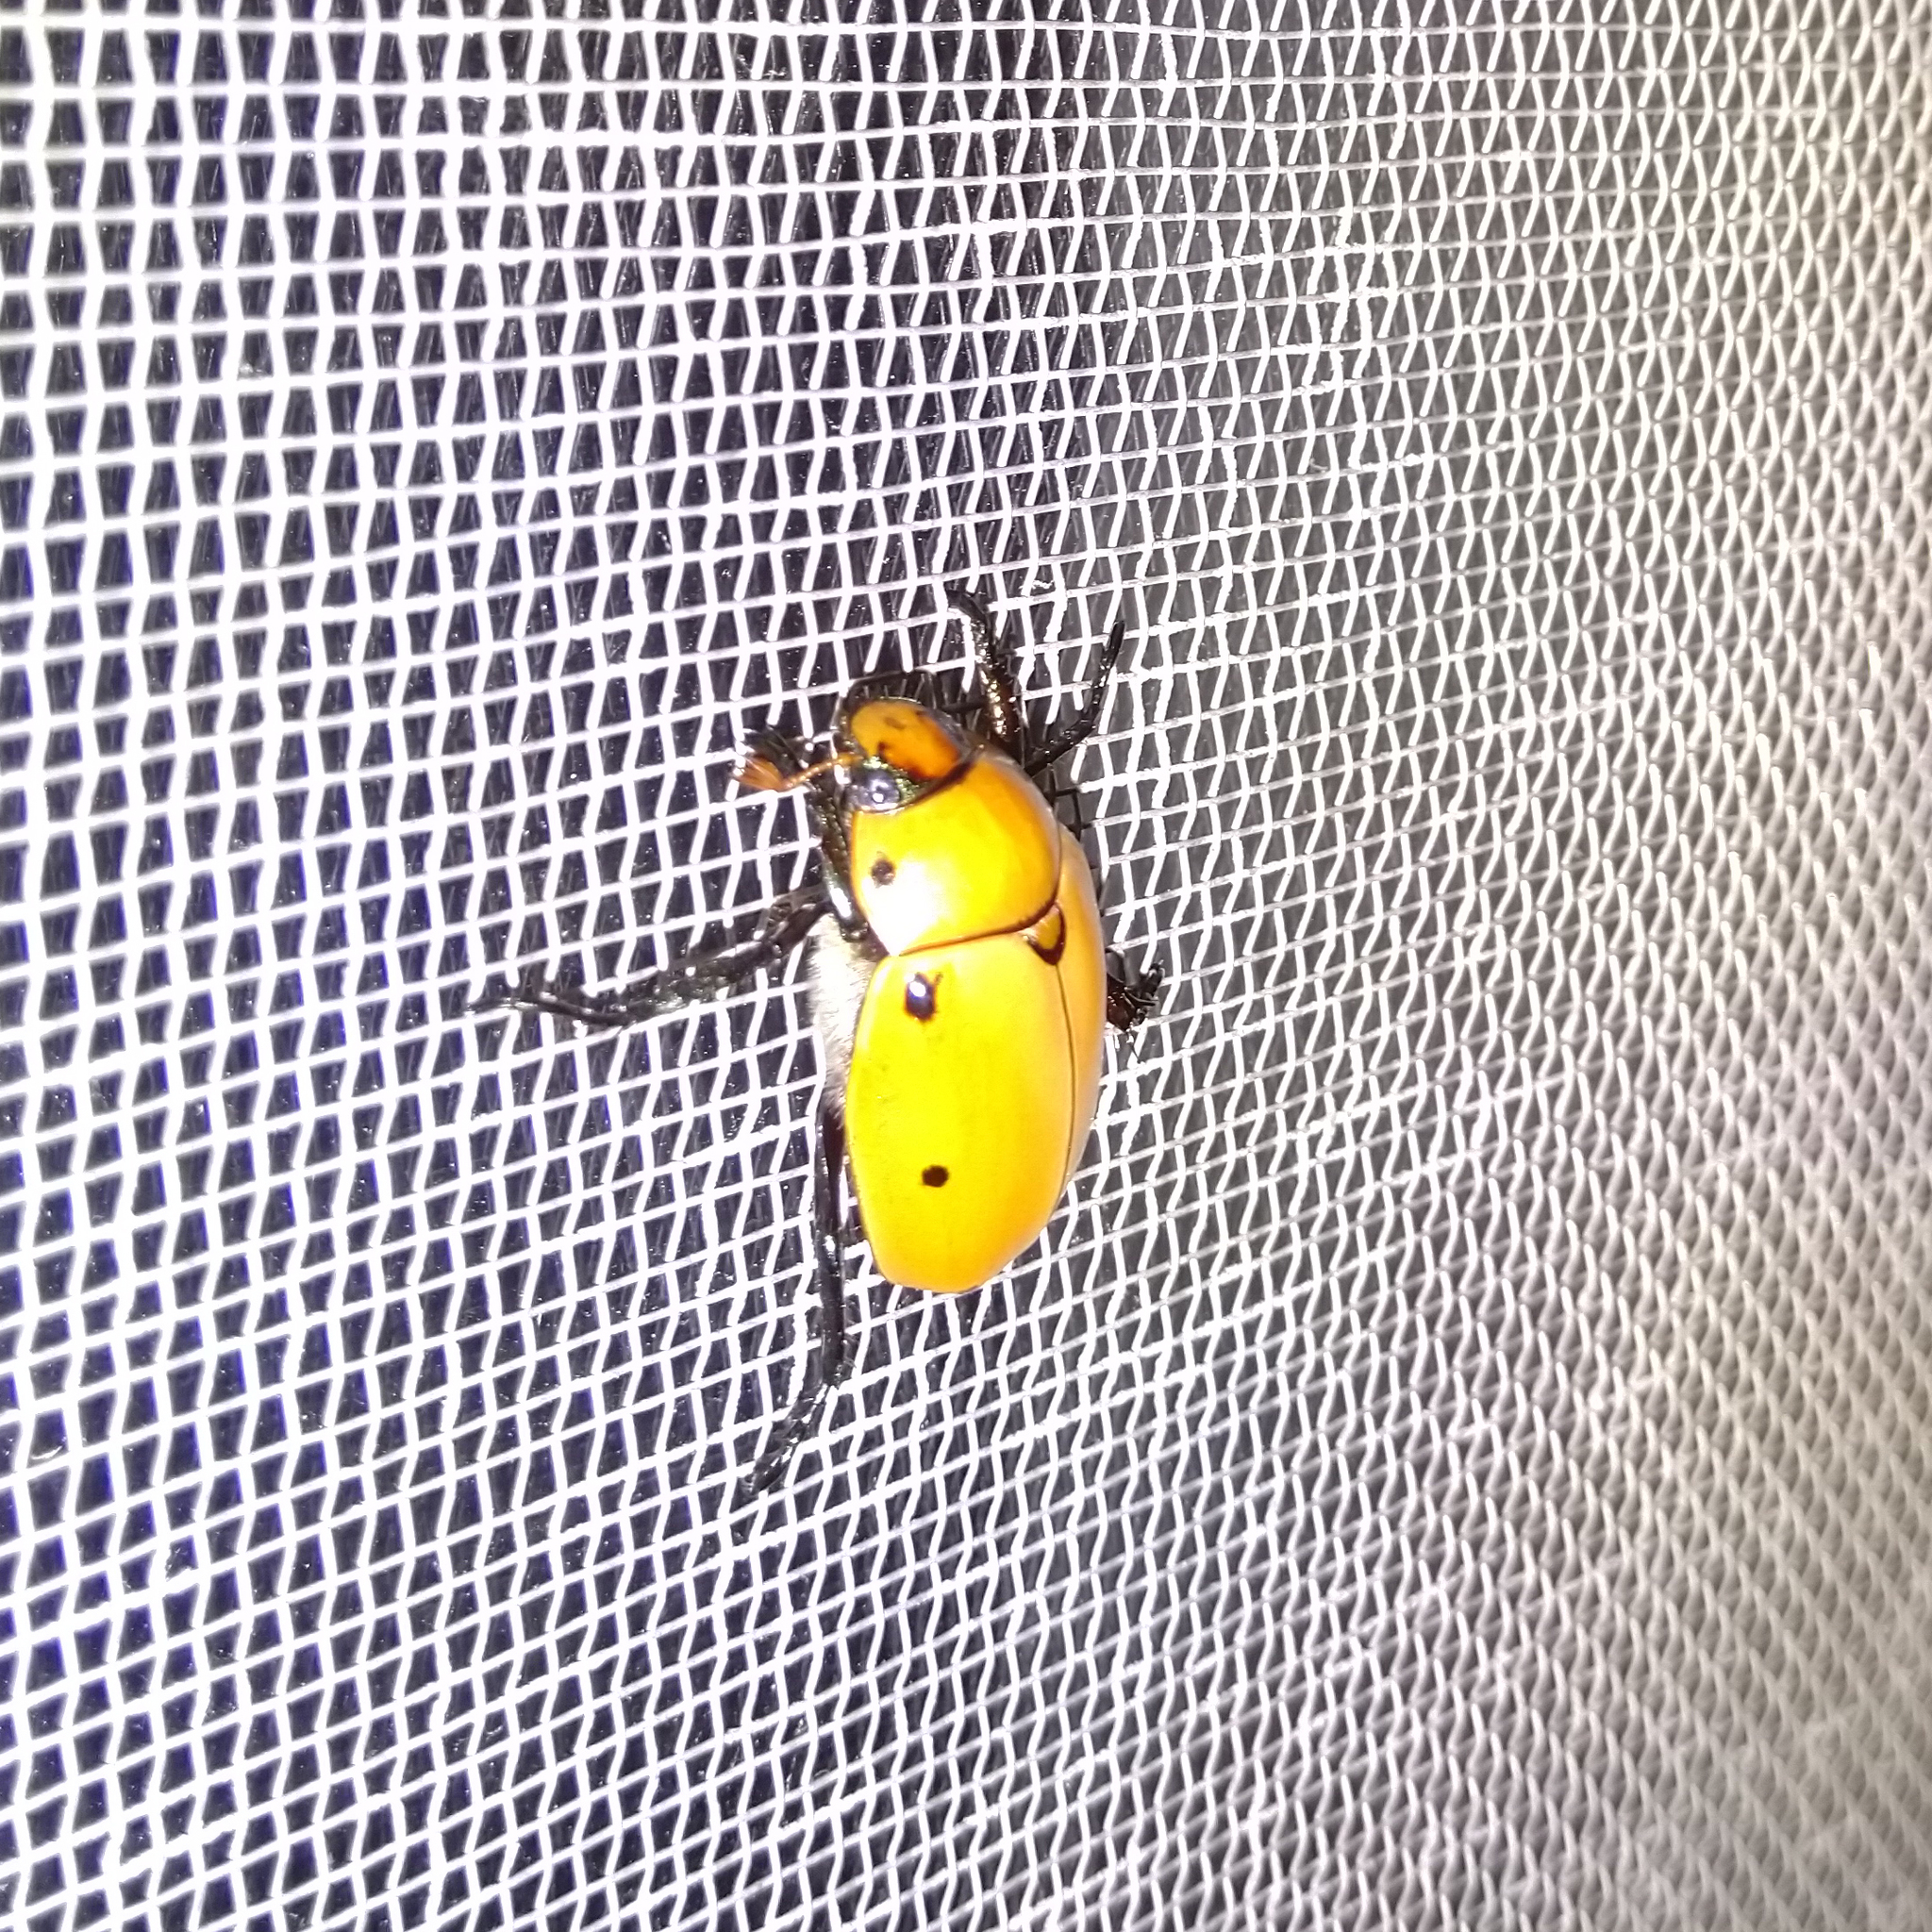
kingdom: Animalia
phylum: Arthropoda
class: Insecta
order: Coleoptera
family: Scarabaeidae
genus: Pelidnota
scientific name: Pelidnota punctata
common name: Grapevine beetle
